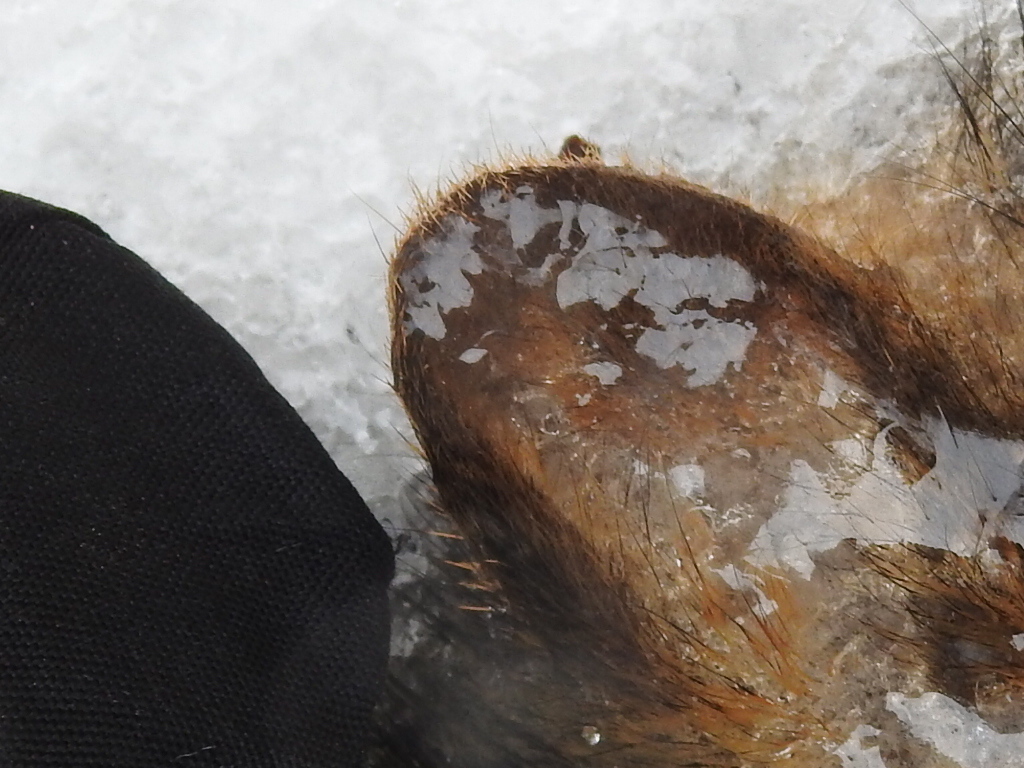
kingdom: Animalia
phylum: Chordata
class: Mammalia
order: Rodentia
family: Sciuridae
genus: Sciurus
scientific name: Sciurus niger
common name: Fox squirrel
